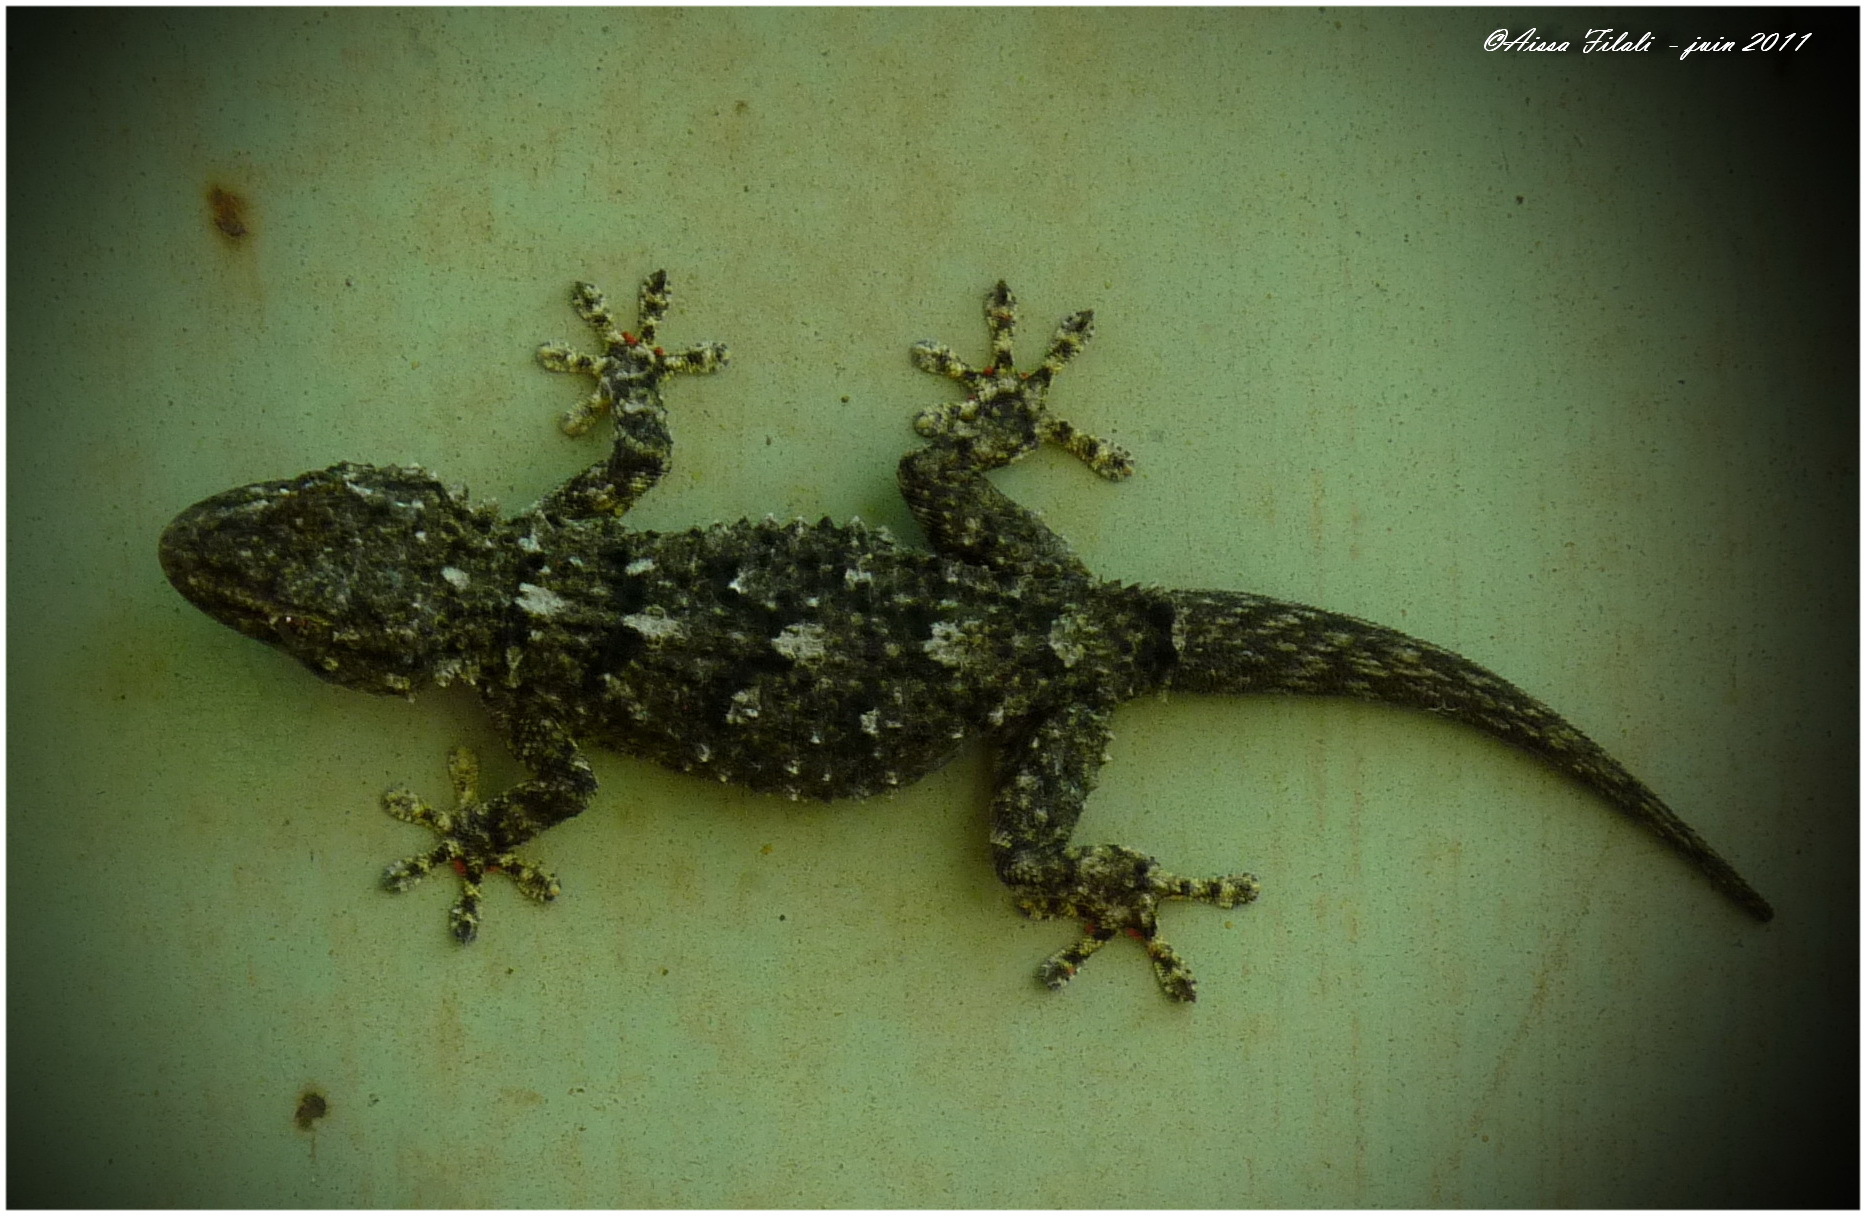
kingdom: Animalia
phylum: Chordata
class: Squamata
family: Phyllodactylidae
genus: Tarentola
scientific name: Tarentola mauritanica
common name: Moorish gecko
